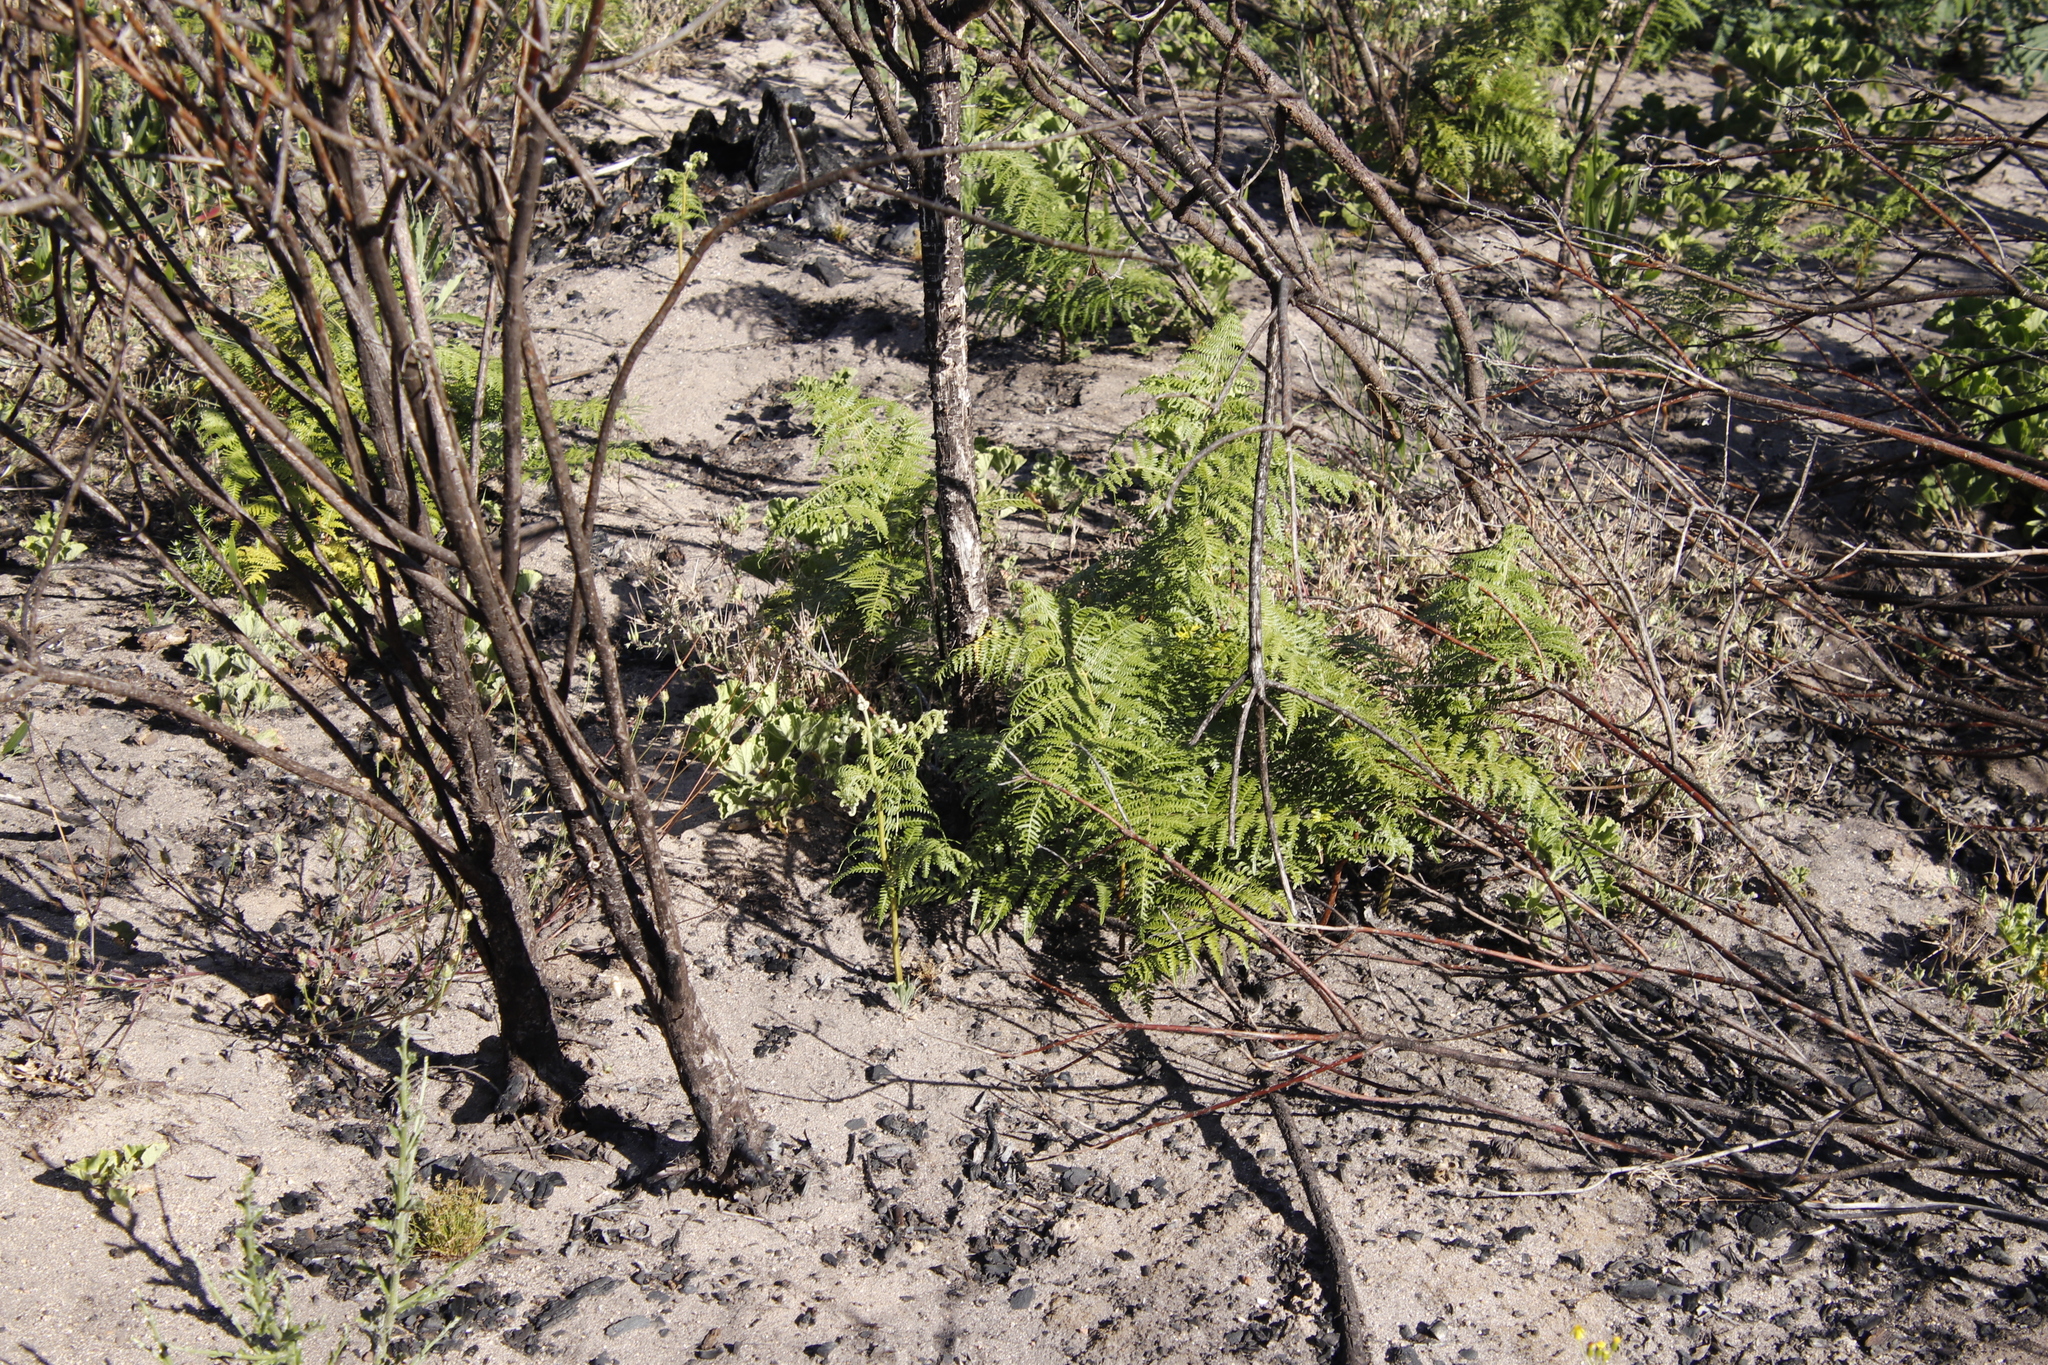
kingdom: Plantae
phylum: Tracheophyta
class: Polypodiopsida
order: Polypodiales
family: Dennstaedtiaceae
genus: Pteridium
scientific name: Pteridium aquilinum
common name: Bracken
